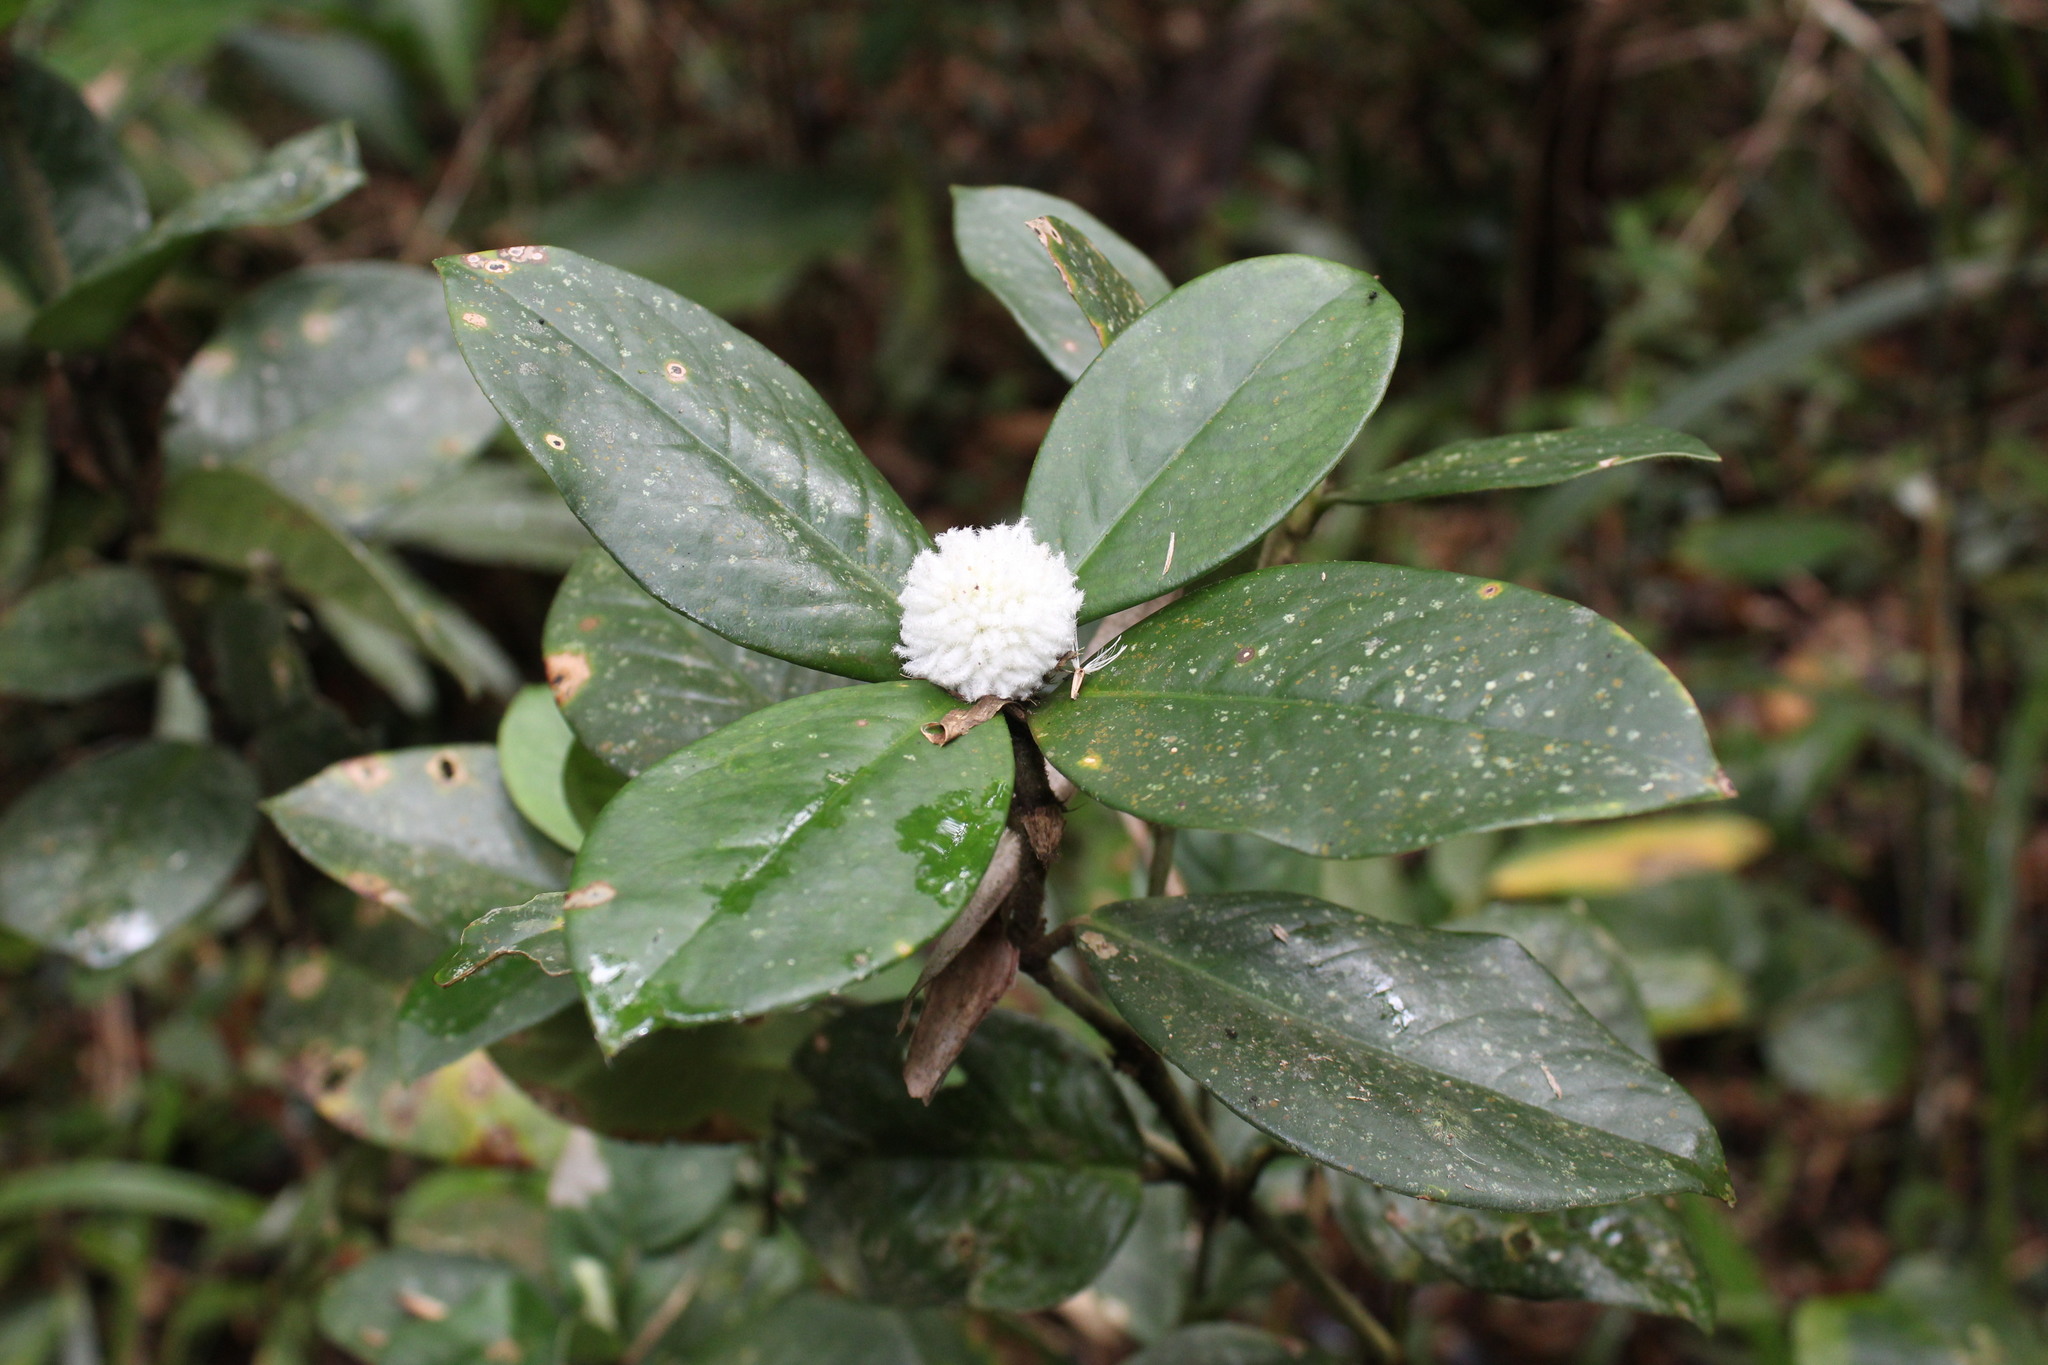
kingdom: Plantae
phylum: Tracheophyta
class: Magnoliopsida
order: Gentianales
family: Rubiaceae
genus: Rudgea
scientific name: Rudgea coriacea
